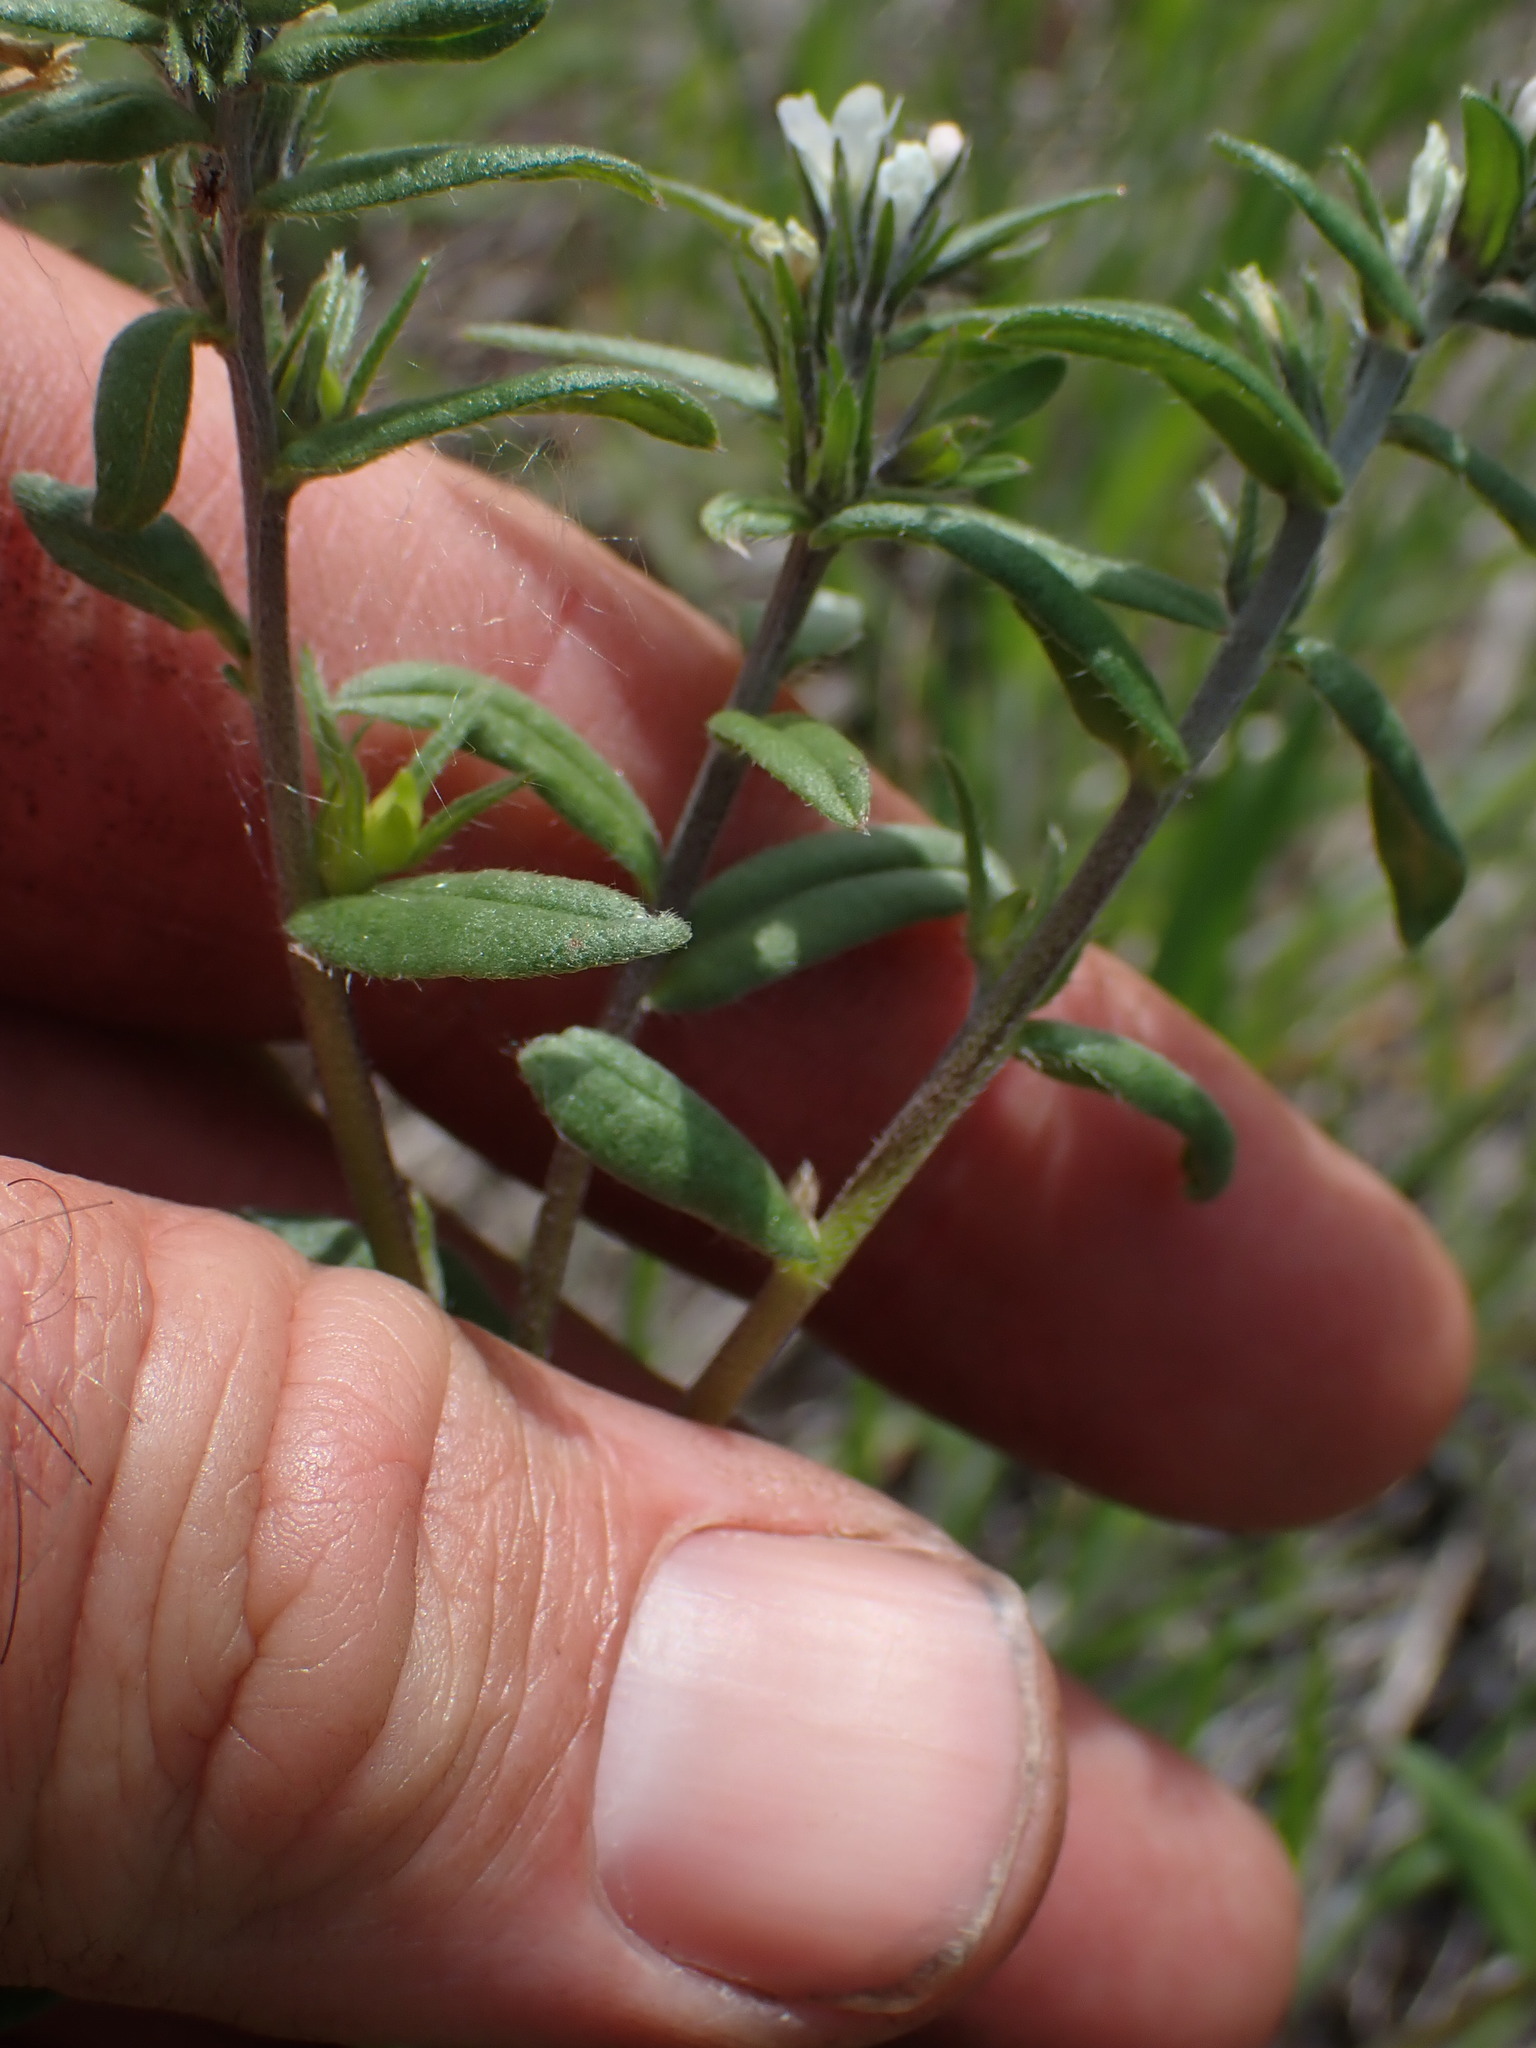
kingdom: Plantae
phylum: Tracheophyta
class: Magnoliopsida
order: Boraginales
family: Boraginaceae
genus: Buglossoides
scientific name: Buglossoides arvensis
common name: Corn gromwell
